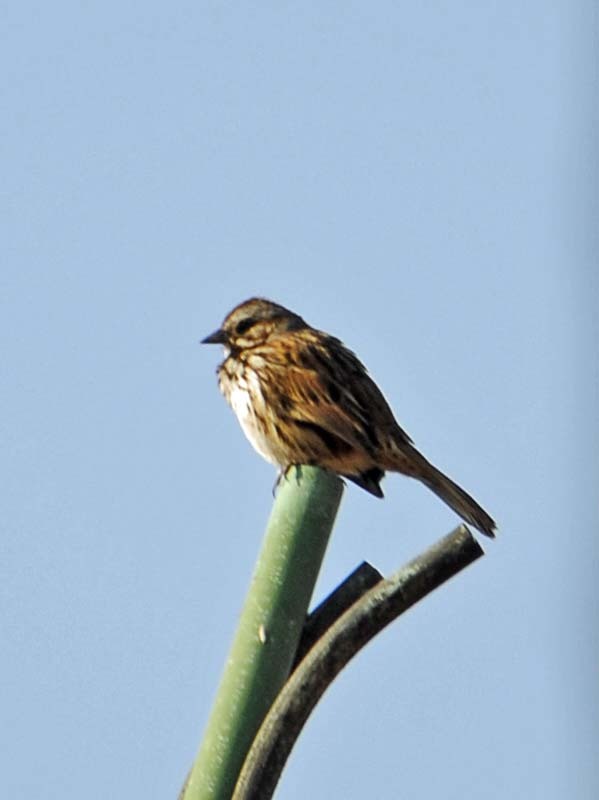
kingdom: Animalia
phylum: Chordata
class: Aves
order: Passeriformes
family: Passerellidae
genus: Melospiza
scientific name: Melospiza melodia
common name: Song sparrow
